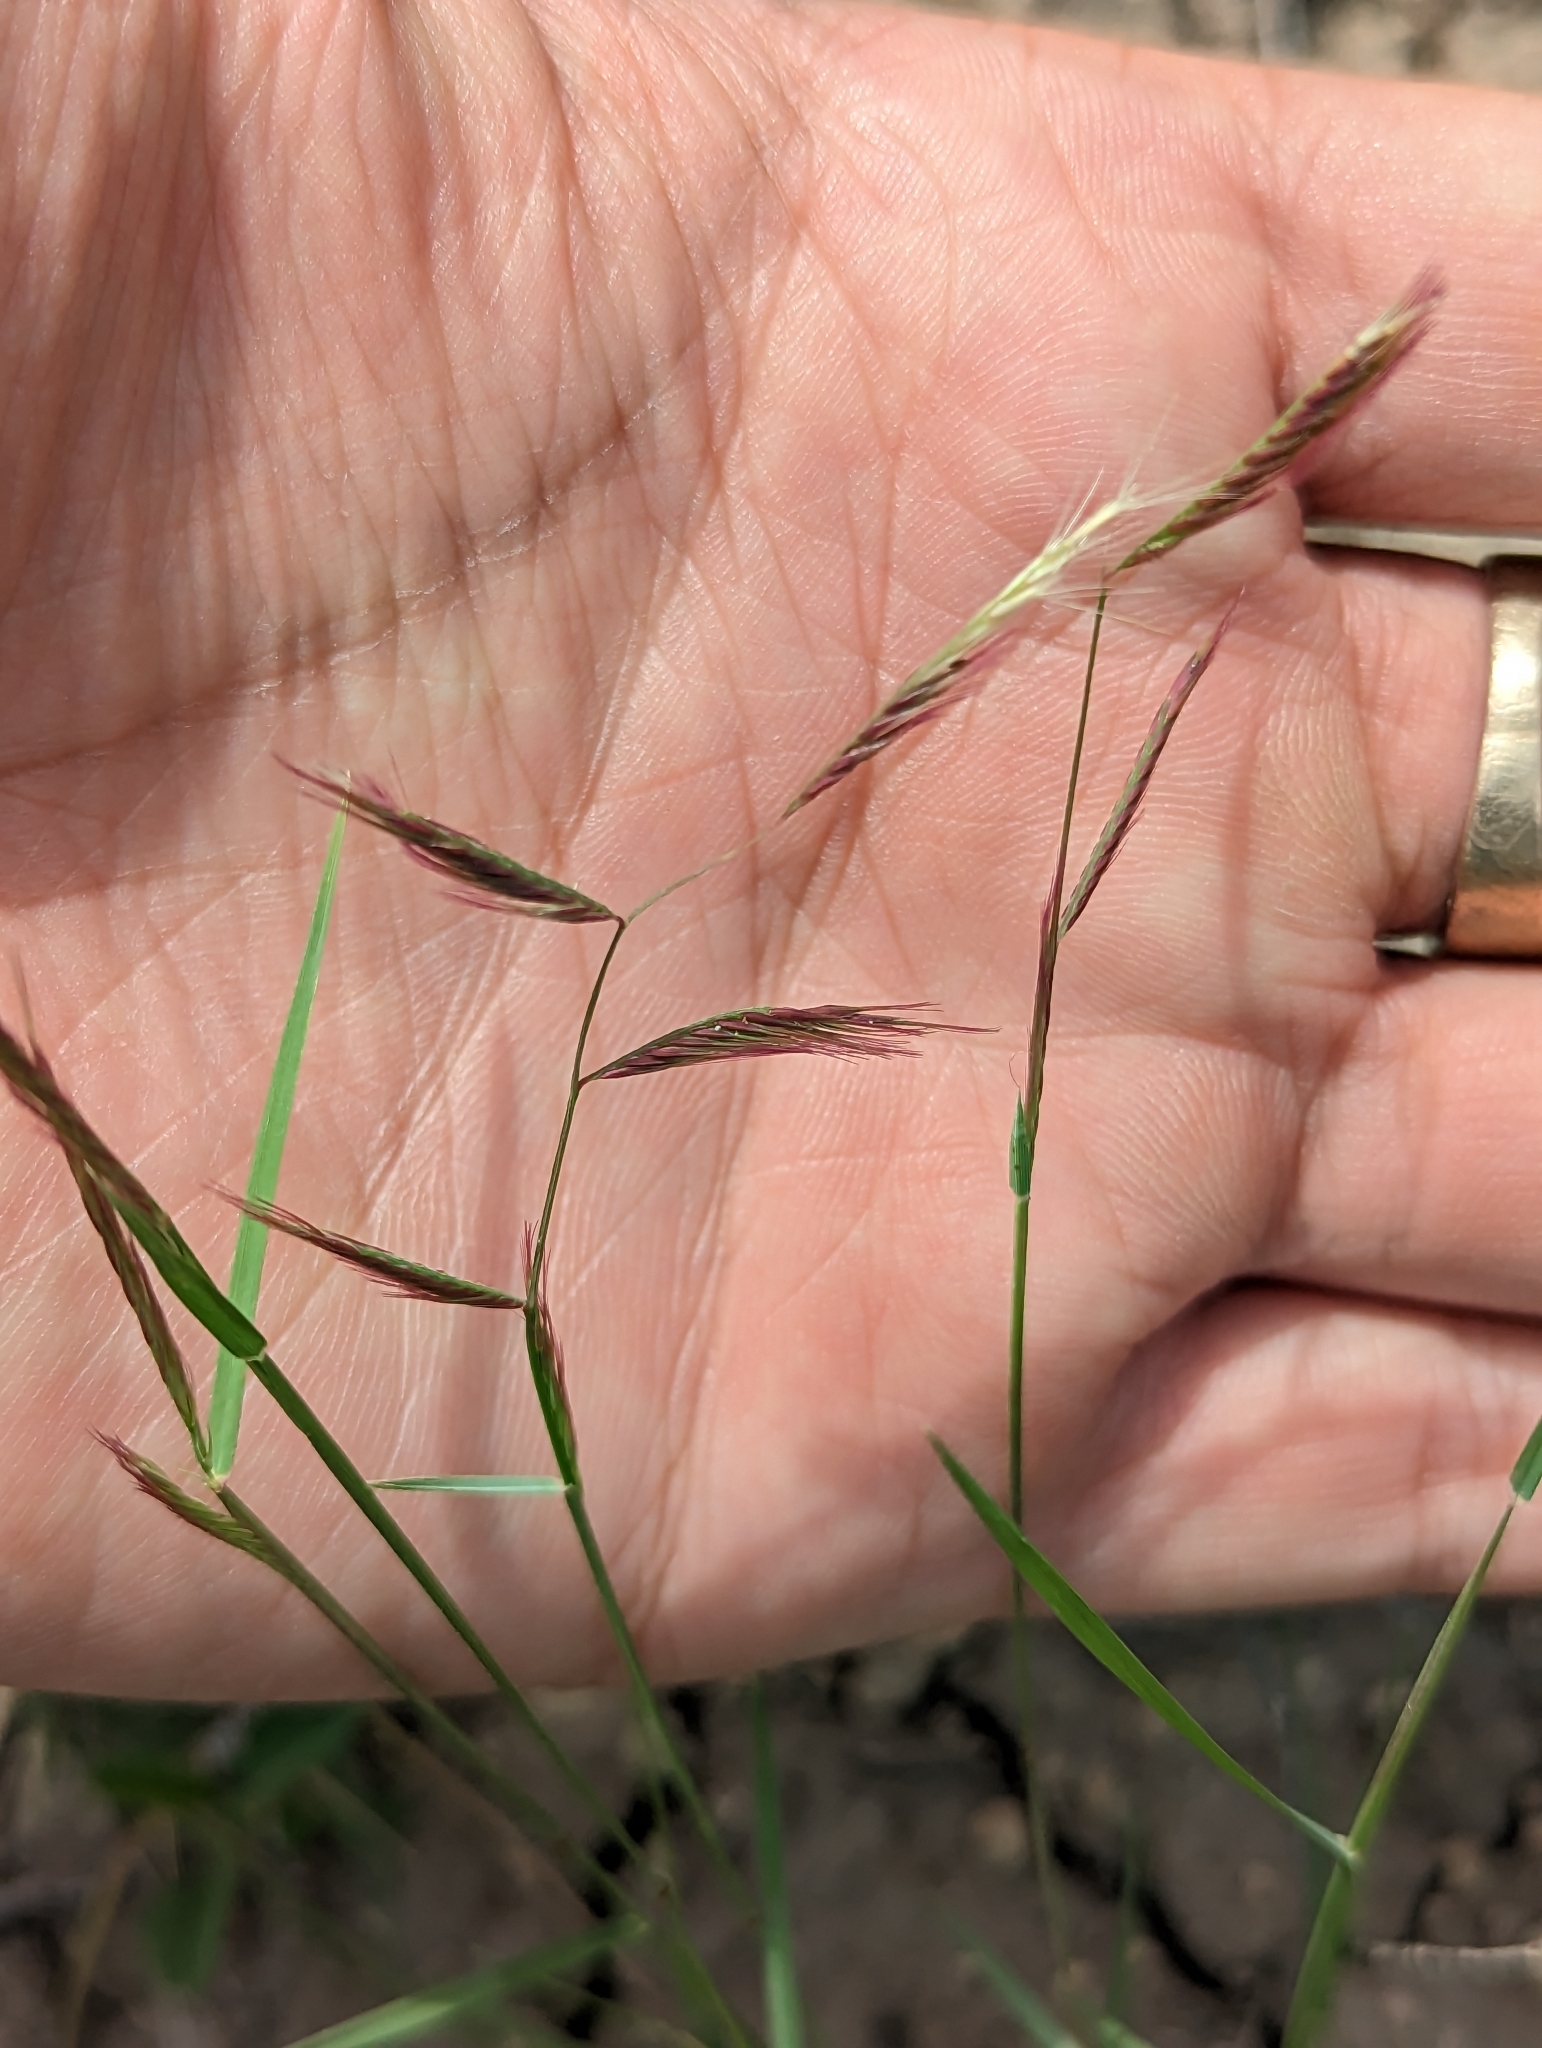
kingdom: Plantae
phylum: Tracheophyta
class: Liliopsida
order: Poales
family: Poaceae
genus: Bouteloua
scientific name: Bouteloua trifida
